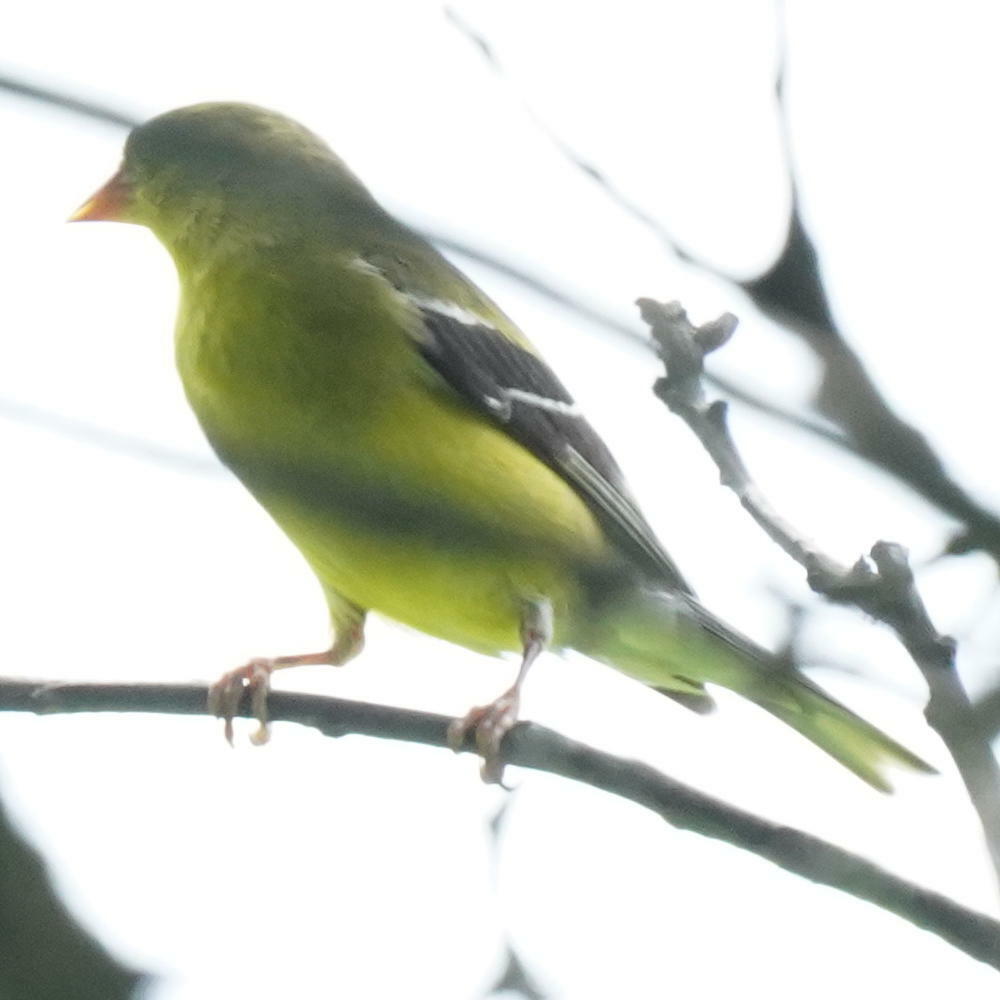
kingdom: Animalia
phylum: Chordata
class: Aves
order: Passeriformes
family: Fringillidae
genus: Spinus
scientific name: Spinus tristis
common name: American goldfinch
